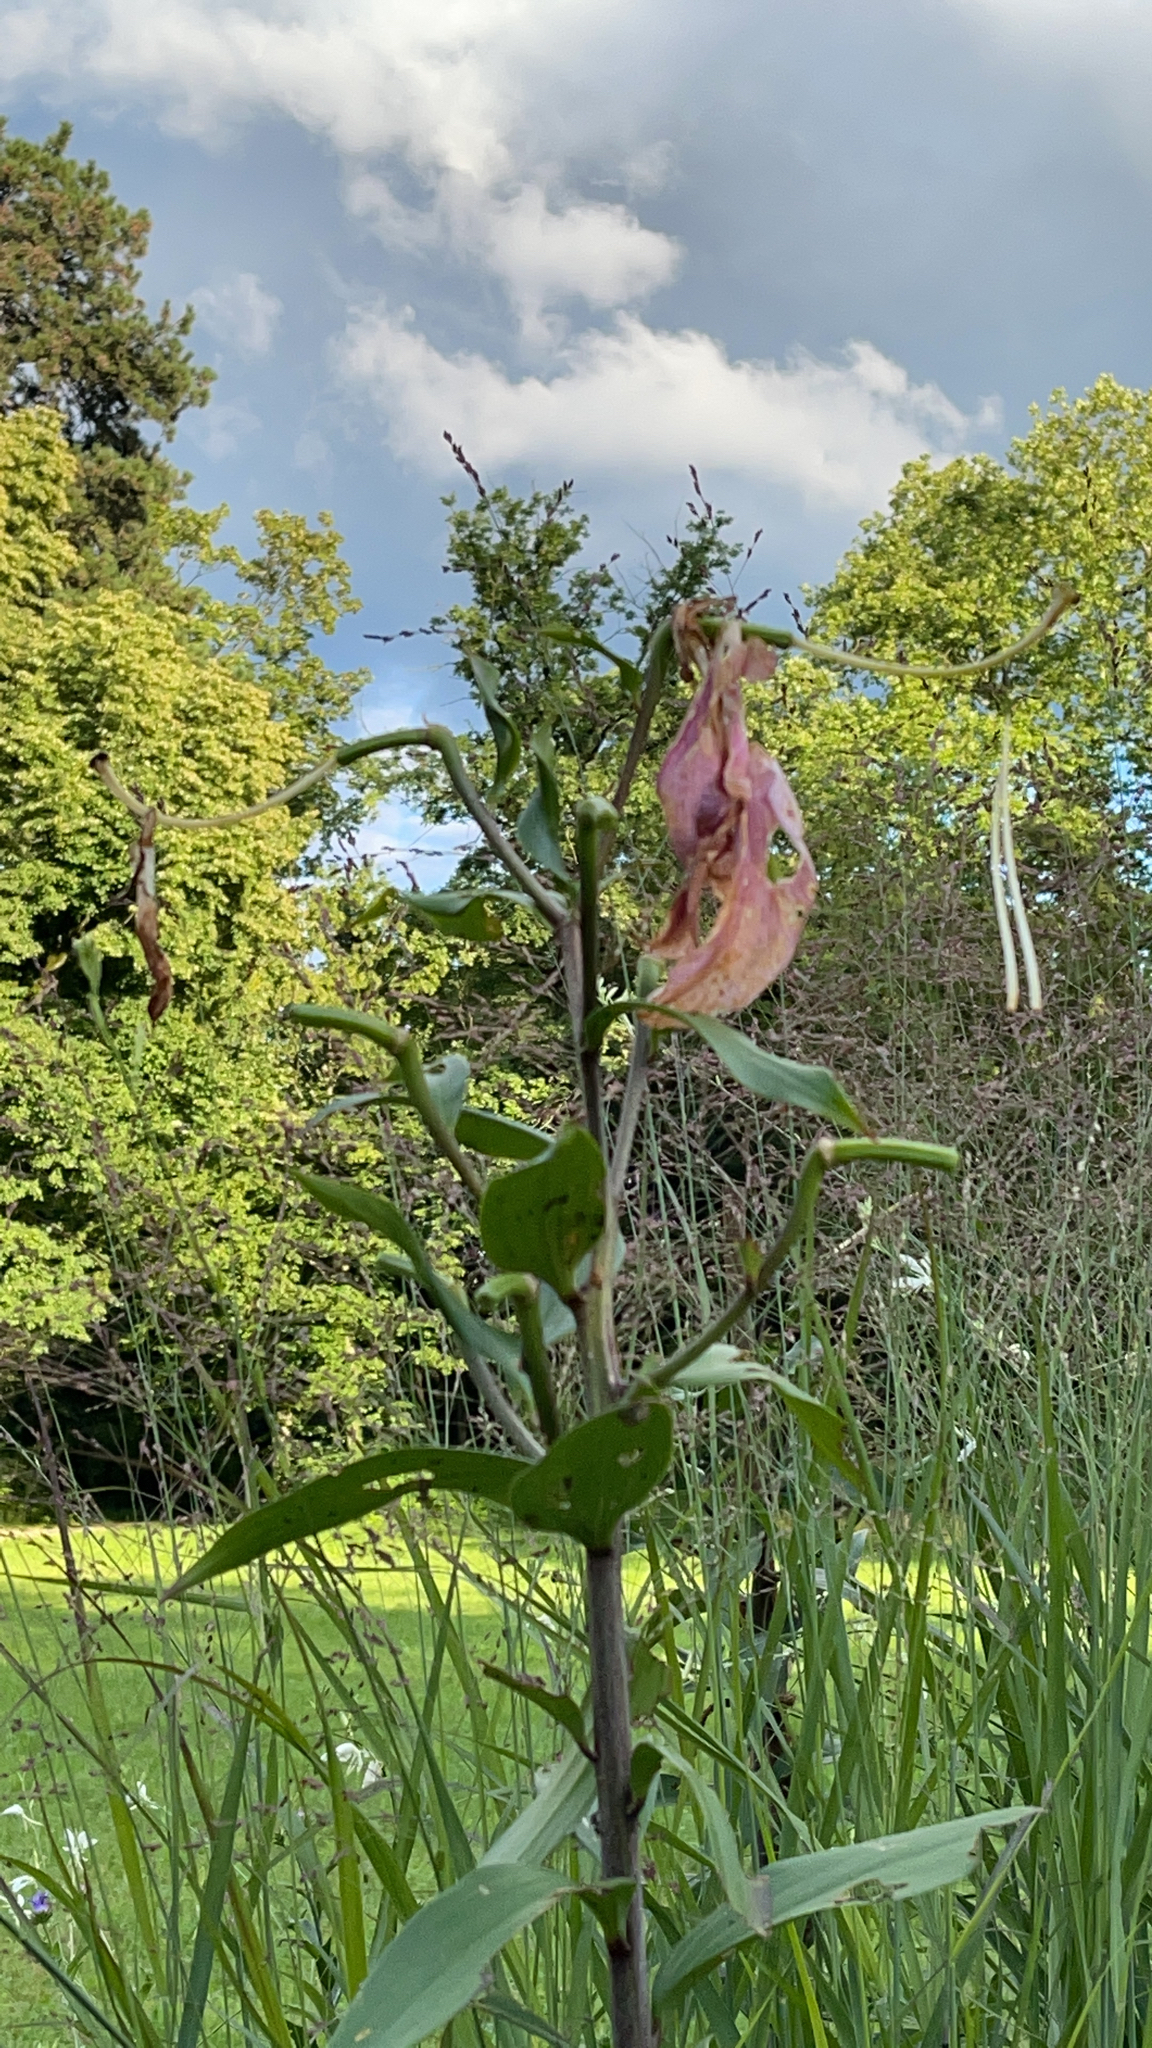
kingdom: Plantae
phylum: Tracheophyta
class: Liliopsida
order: Liliales
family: Liliaceae
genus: Lilium
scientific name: Lilium martagon
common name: Martagon lily
